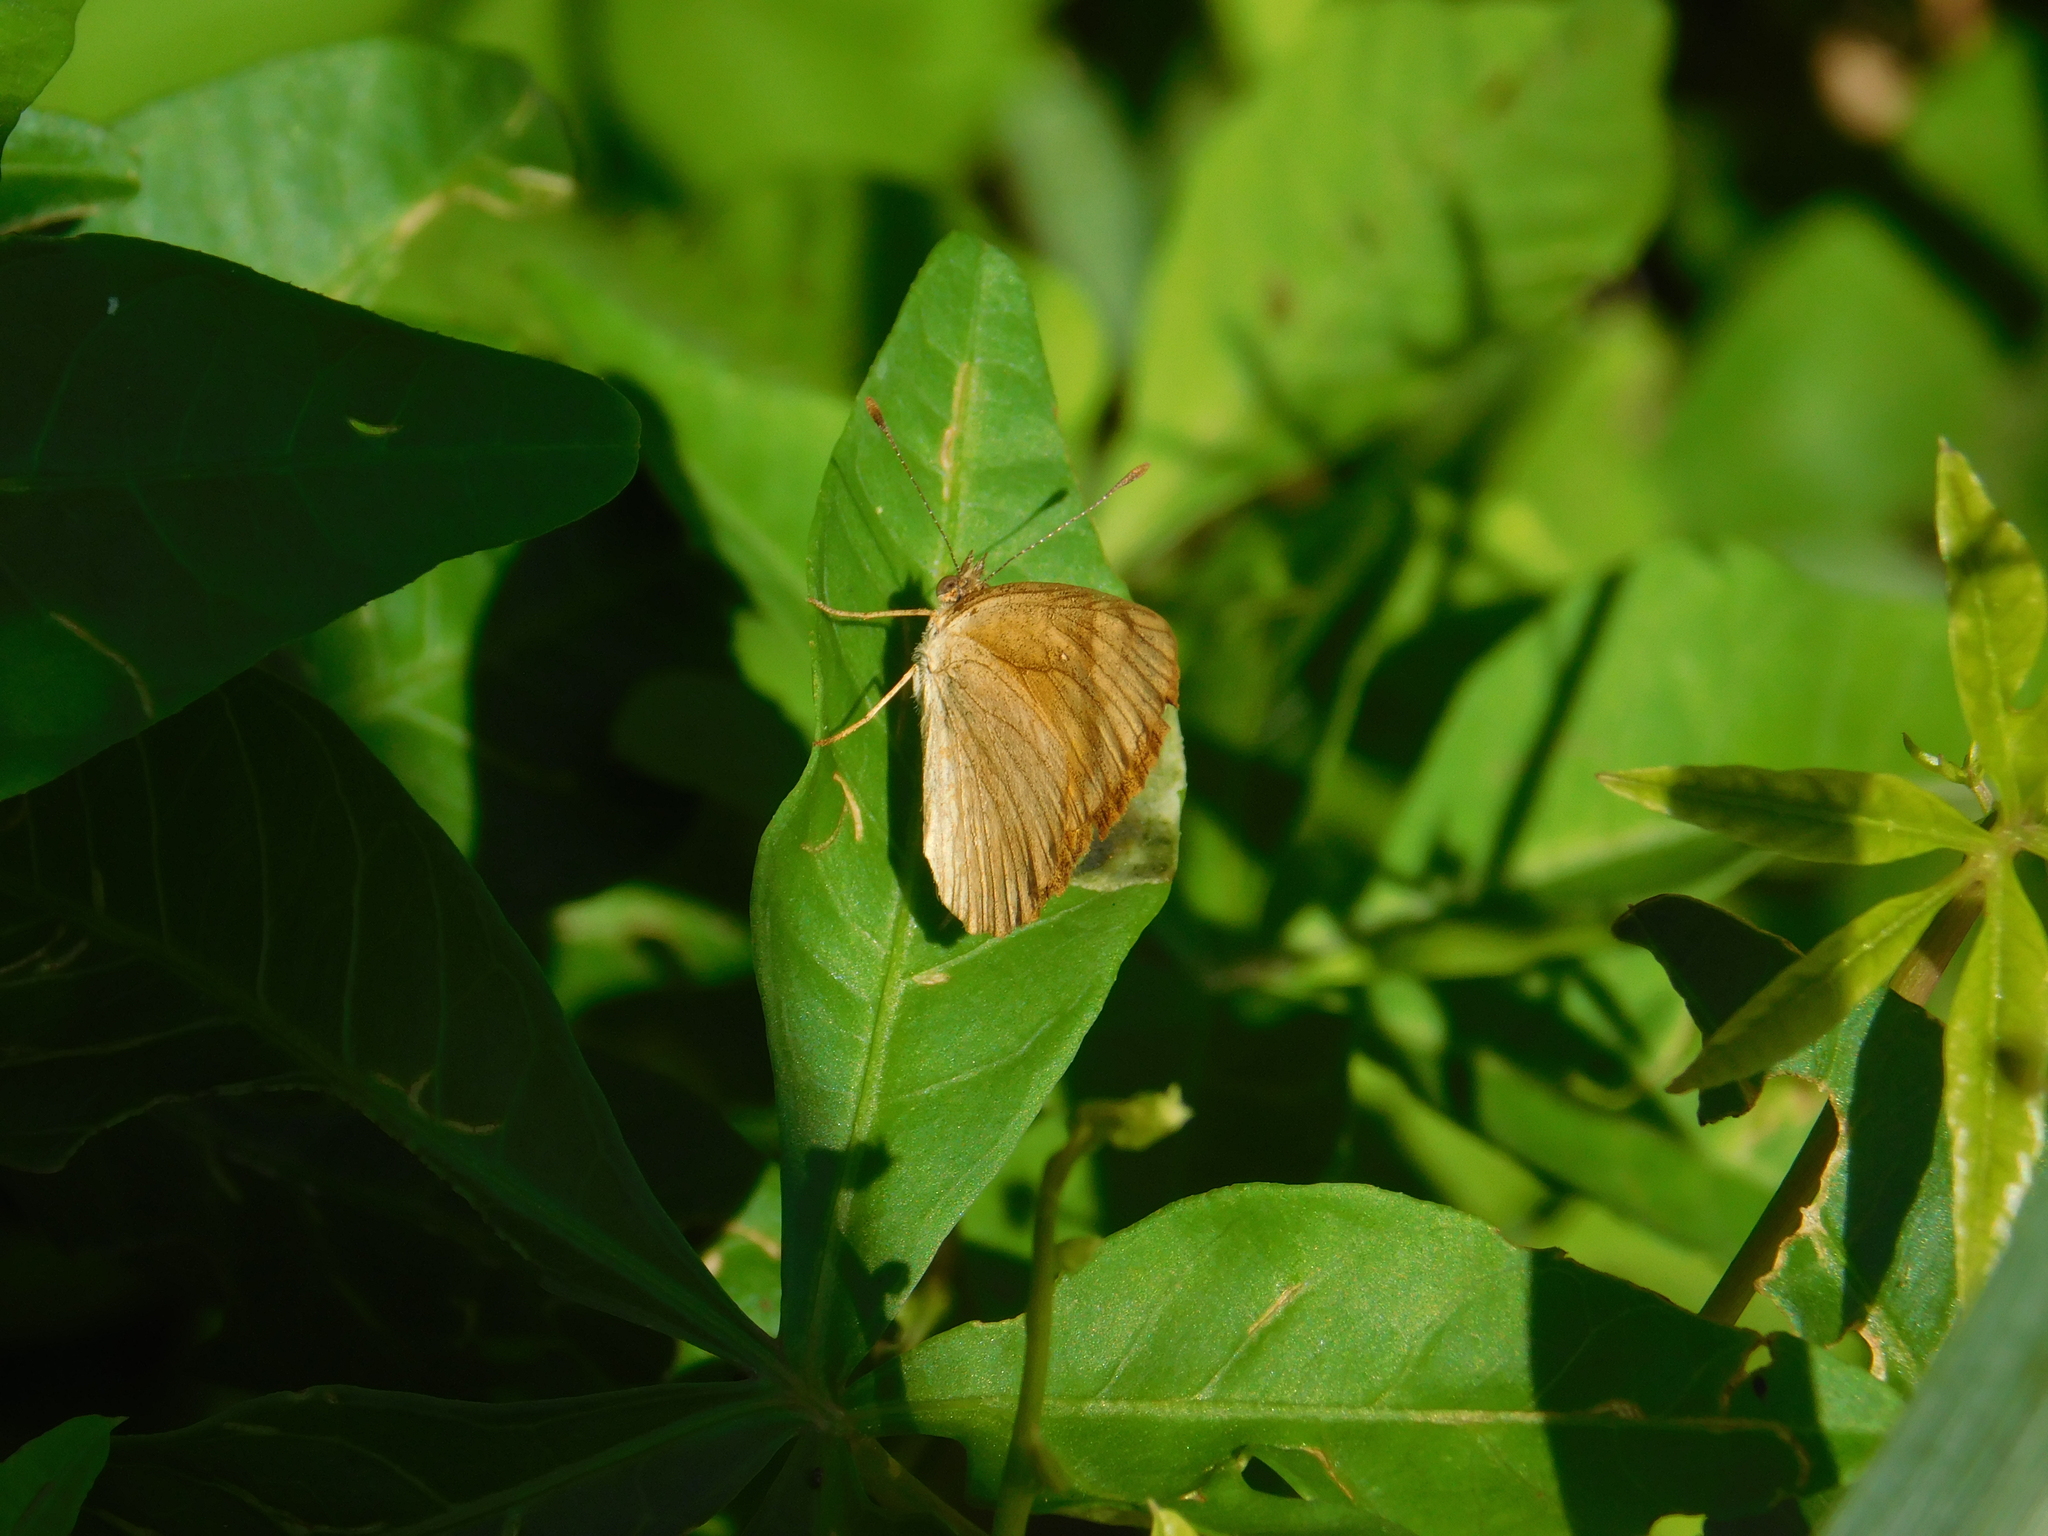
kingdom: Animalia
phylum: Arthropoda
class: Insecta
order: Lepidoptera
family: Nymphalidae
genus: Tegosa
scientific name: Tegosa claudina
